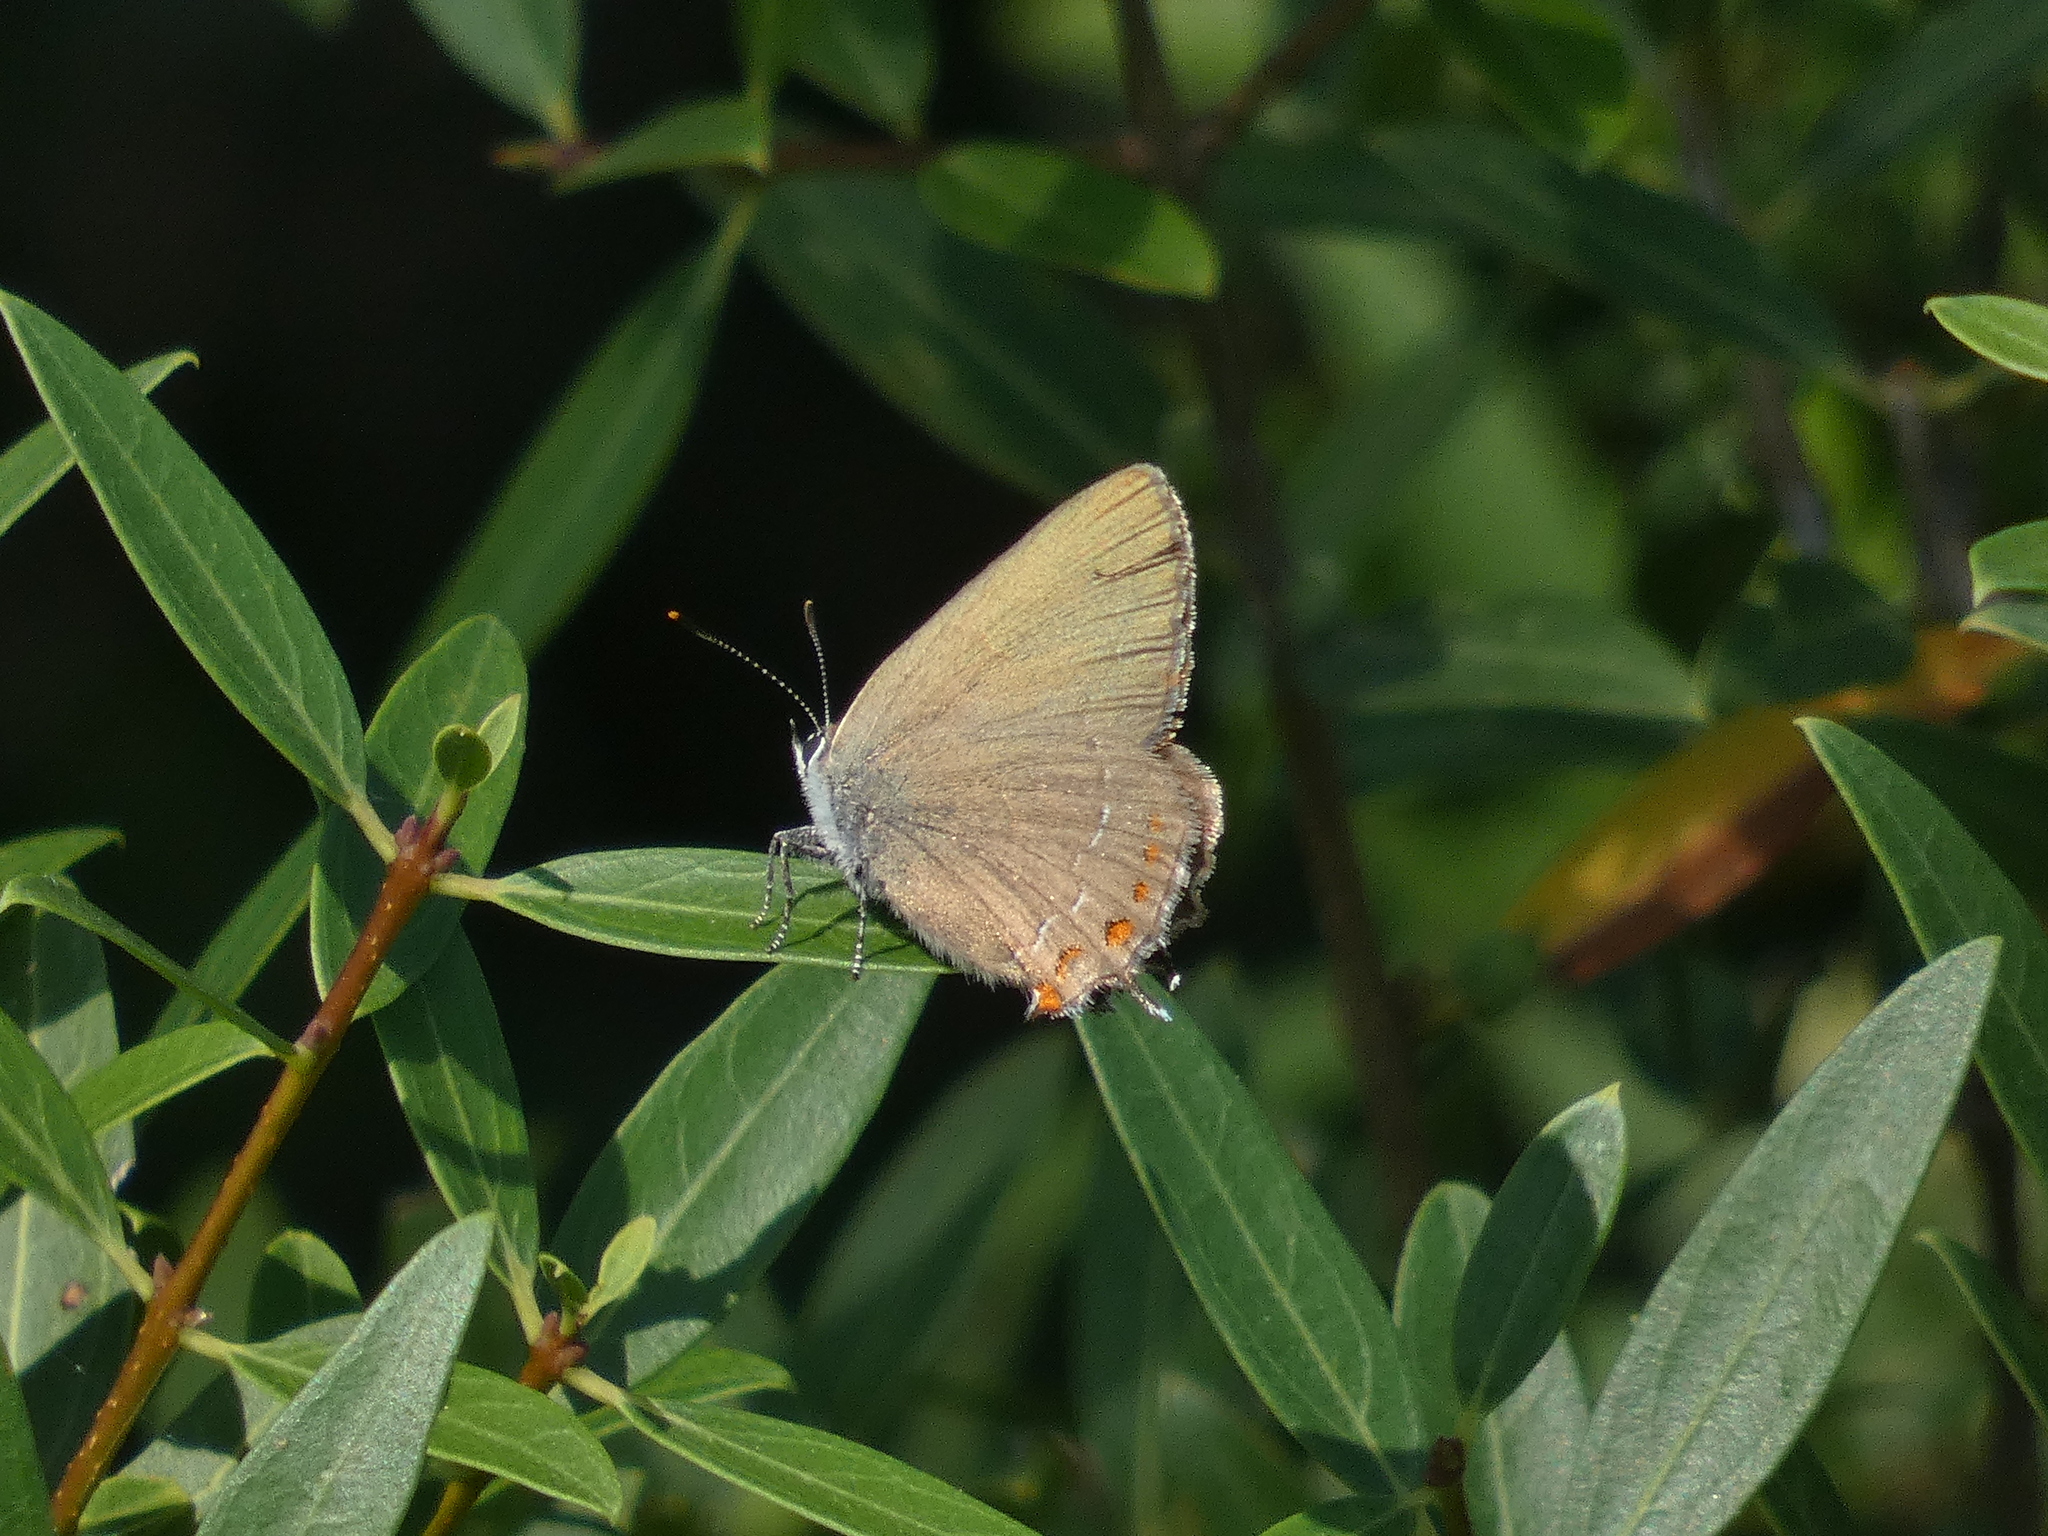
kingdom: Animalia
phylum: Arthropoda
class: Insecta
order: Lepidoptera
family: Lycaenidae
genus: Fixsenia
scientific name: Fixsenia esculi
